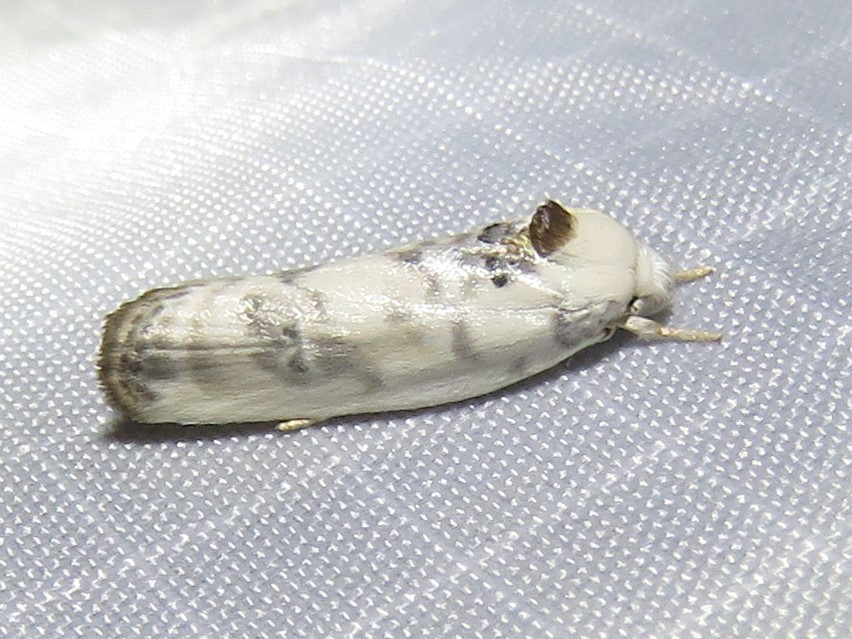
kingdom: Animalia
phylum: Arthropoda
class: Insecta
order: Lepidoptera
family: Depressariidae
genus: Antaeotricha
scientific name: Antaeotricha leucillana
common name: Pale gray bird-dropping moth
